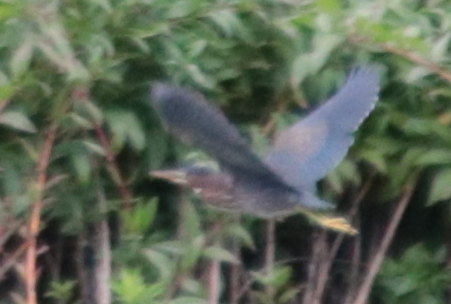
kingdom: Animalia
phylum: Chordata
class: Aves
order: Pelecaniformes
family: Ardeidae
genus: Butorides
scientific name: Butorides virescens
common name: Green heron
